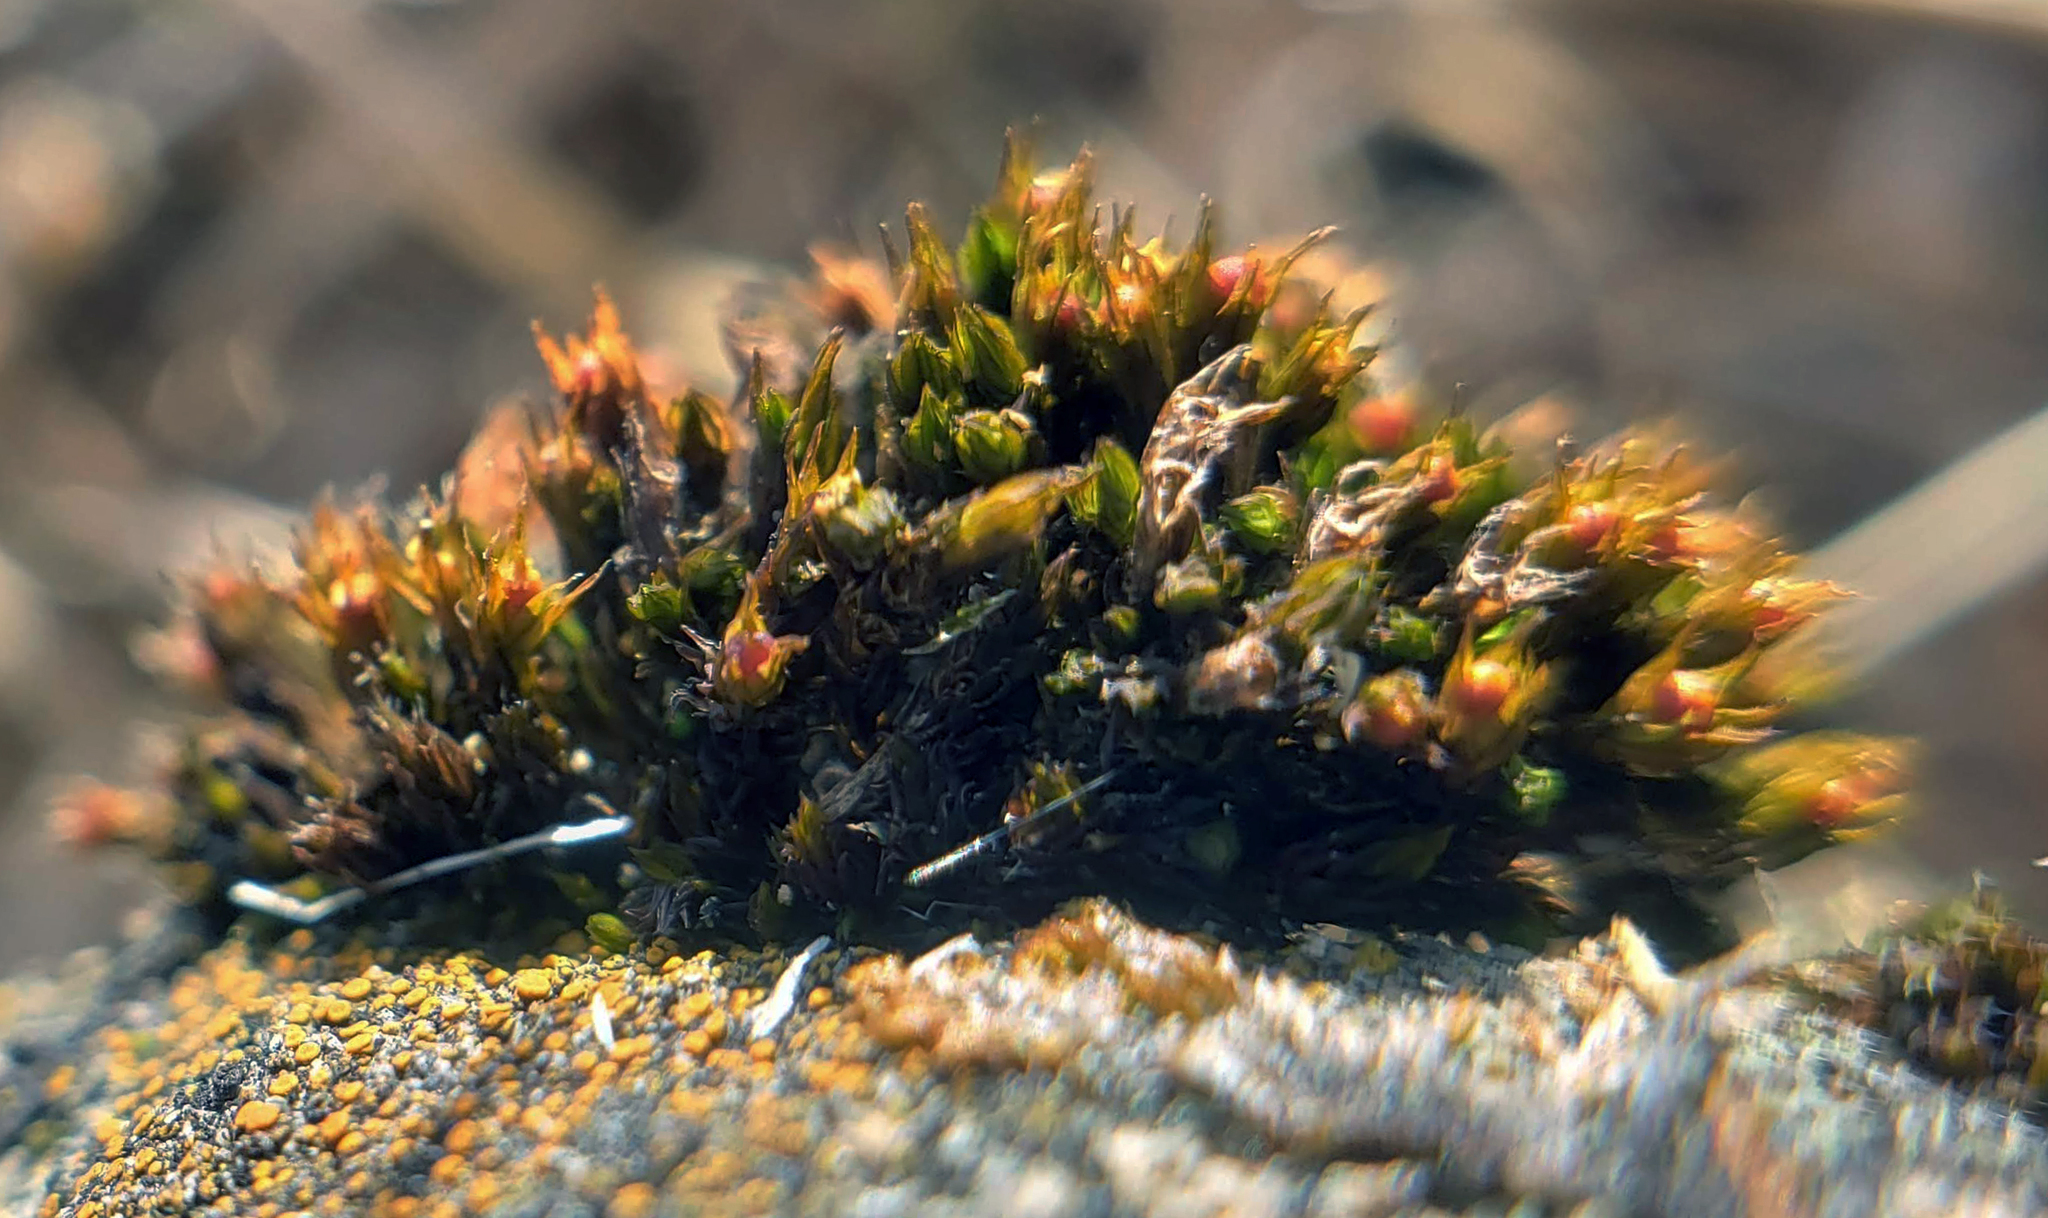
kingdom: Plantae
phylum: Bryophyta
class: Bryopsida
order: Grimmiales
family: Grimmiaceae
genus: Schistidium
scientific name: Schistidium rivulare
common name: River bloom moss
